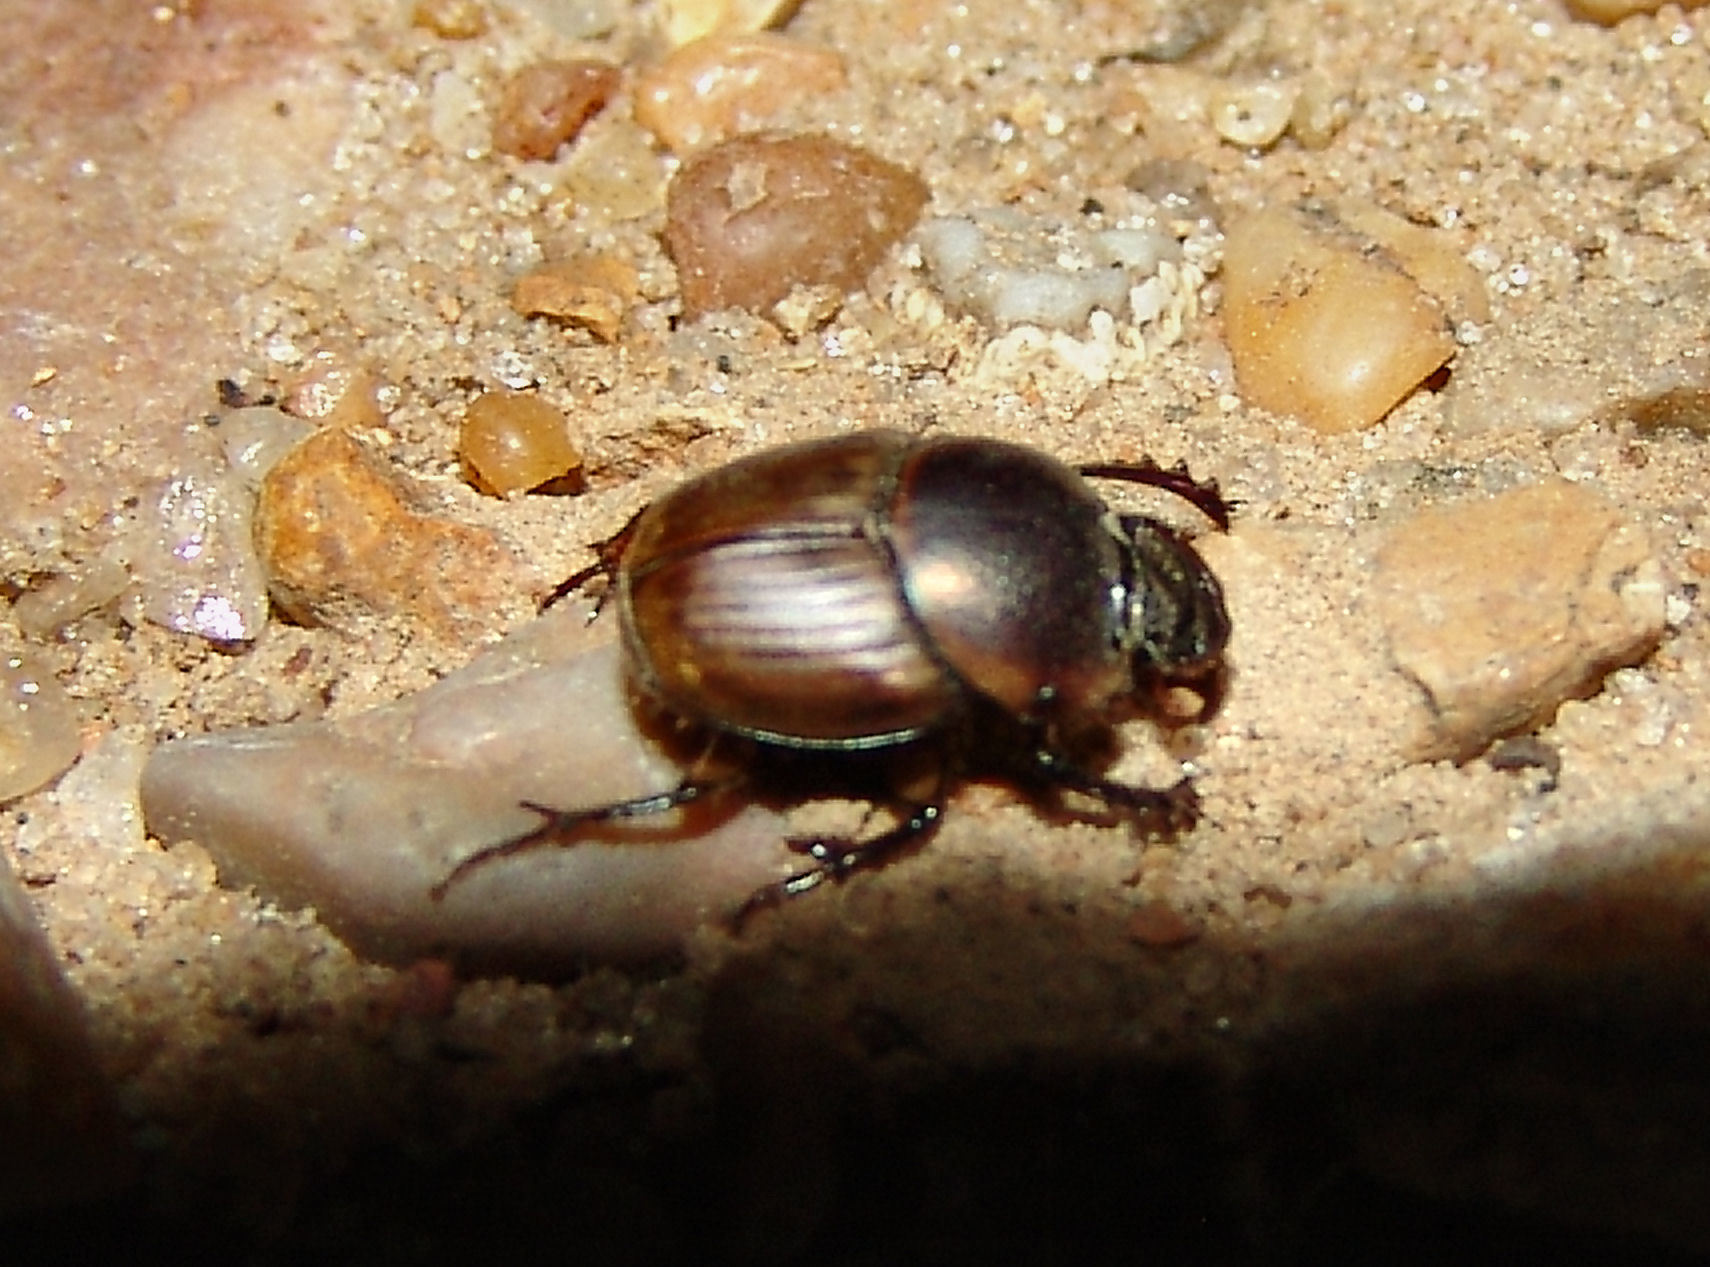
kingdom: Animalia
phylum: Arthropoda
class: Insecta
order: Coleoptera
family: Scarabaeidae
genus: Digitonthophagus
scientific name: Digitonthophagus gazella
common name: Brown dung beetle
